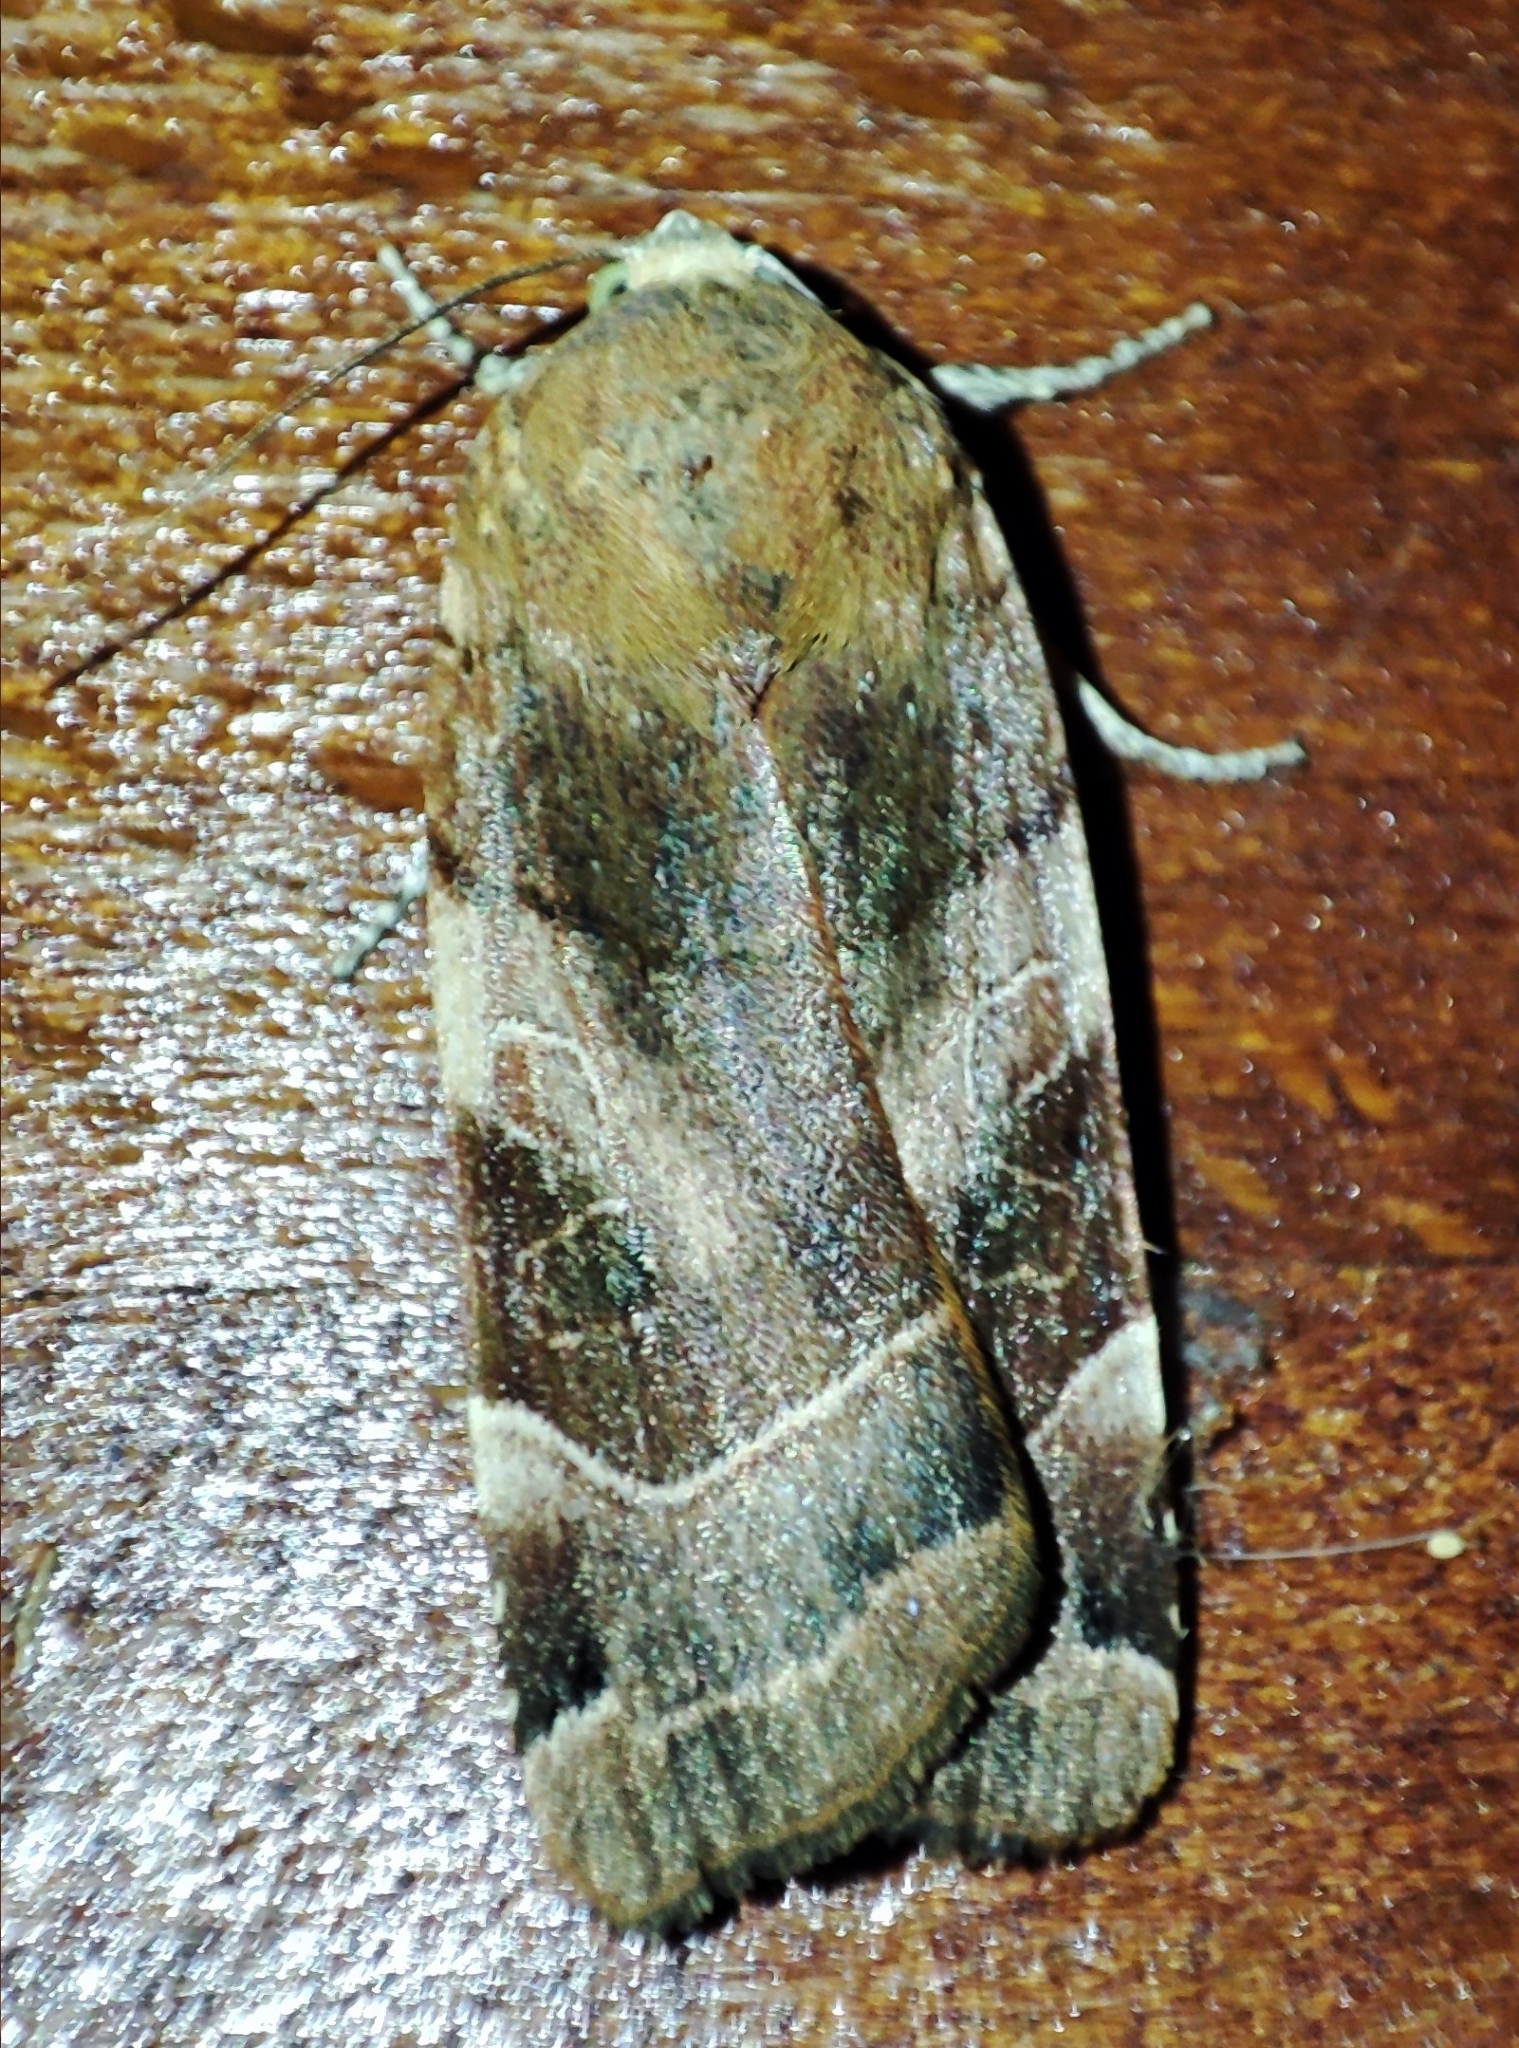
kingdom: Animalia
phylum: Arthropoda
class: Insecta
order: Lepidoptera
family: Noctuidae
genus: Noctua
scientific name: Noctua fimbriata
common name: Broad-bordered yellow underwing
